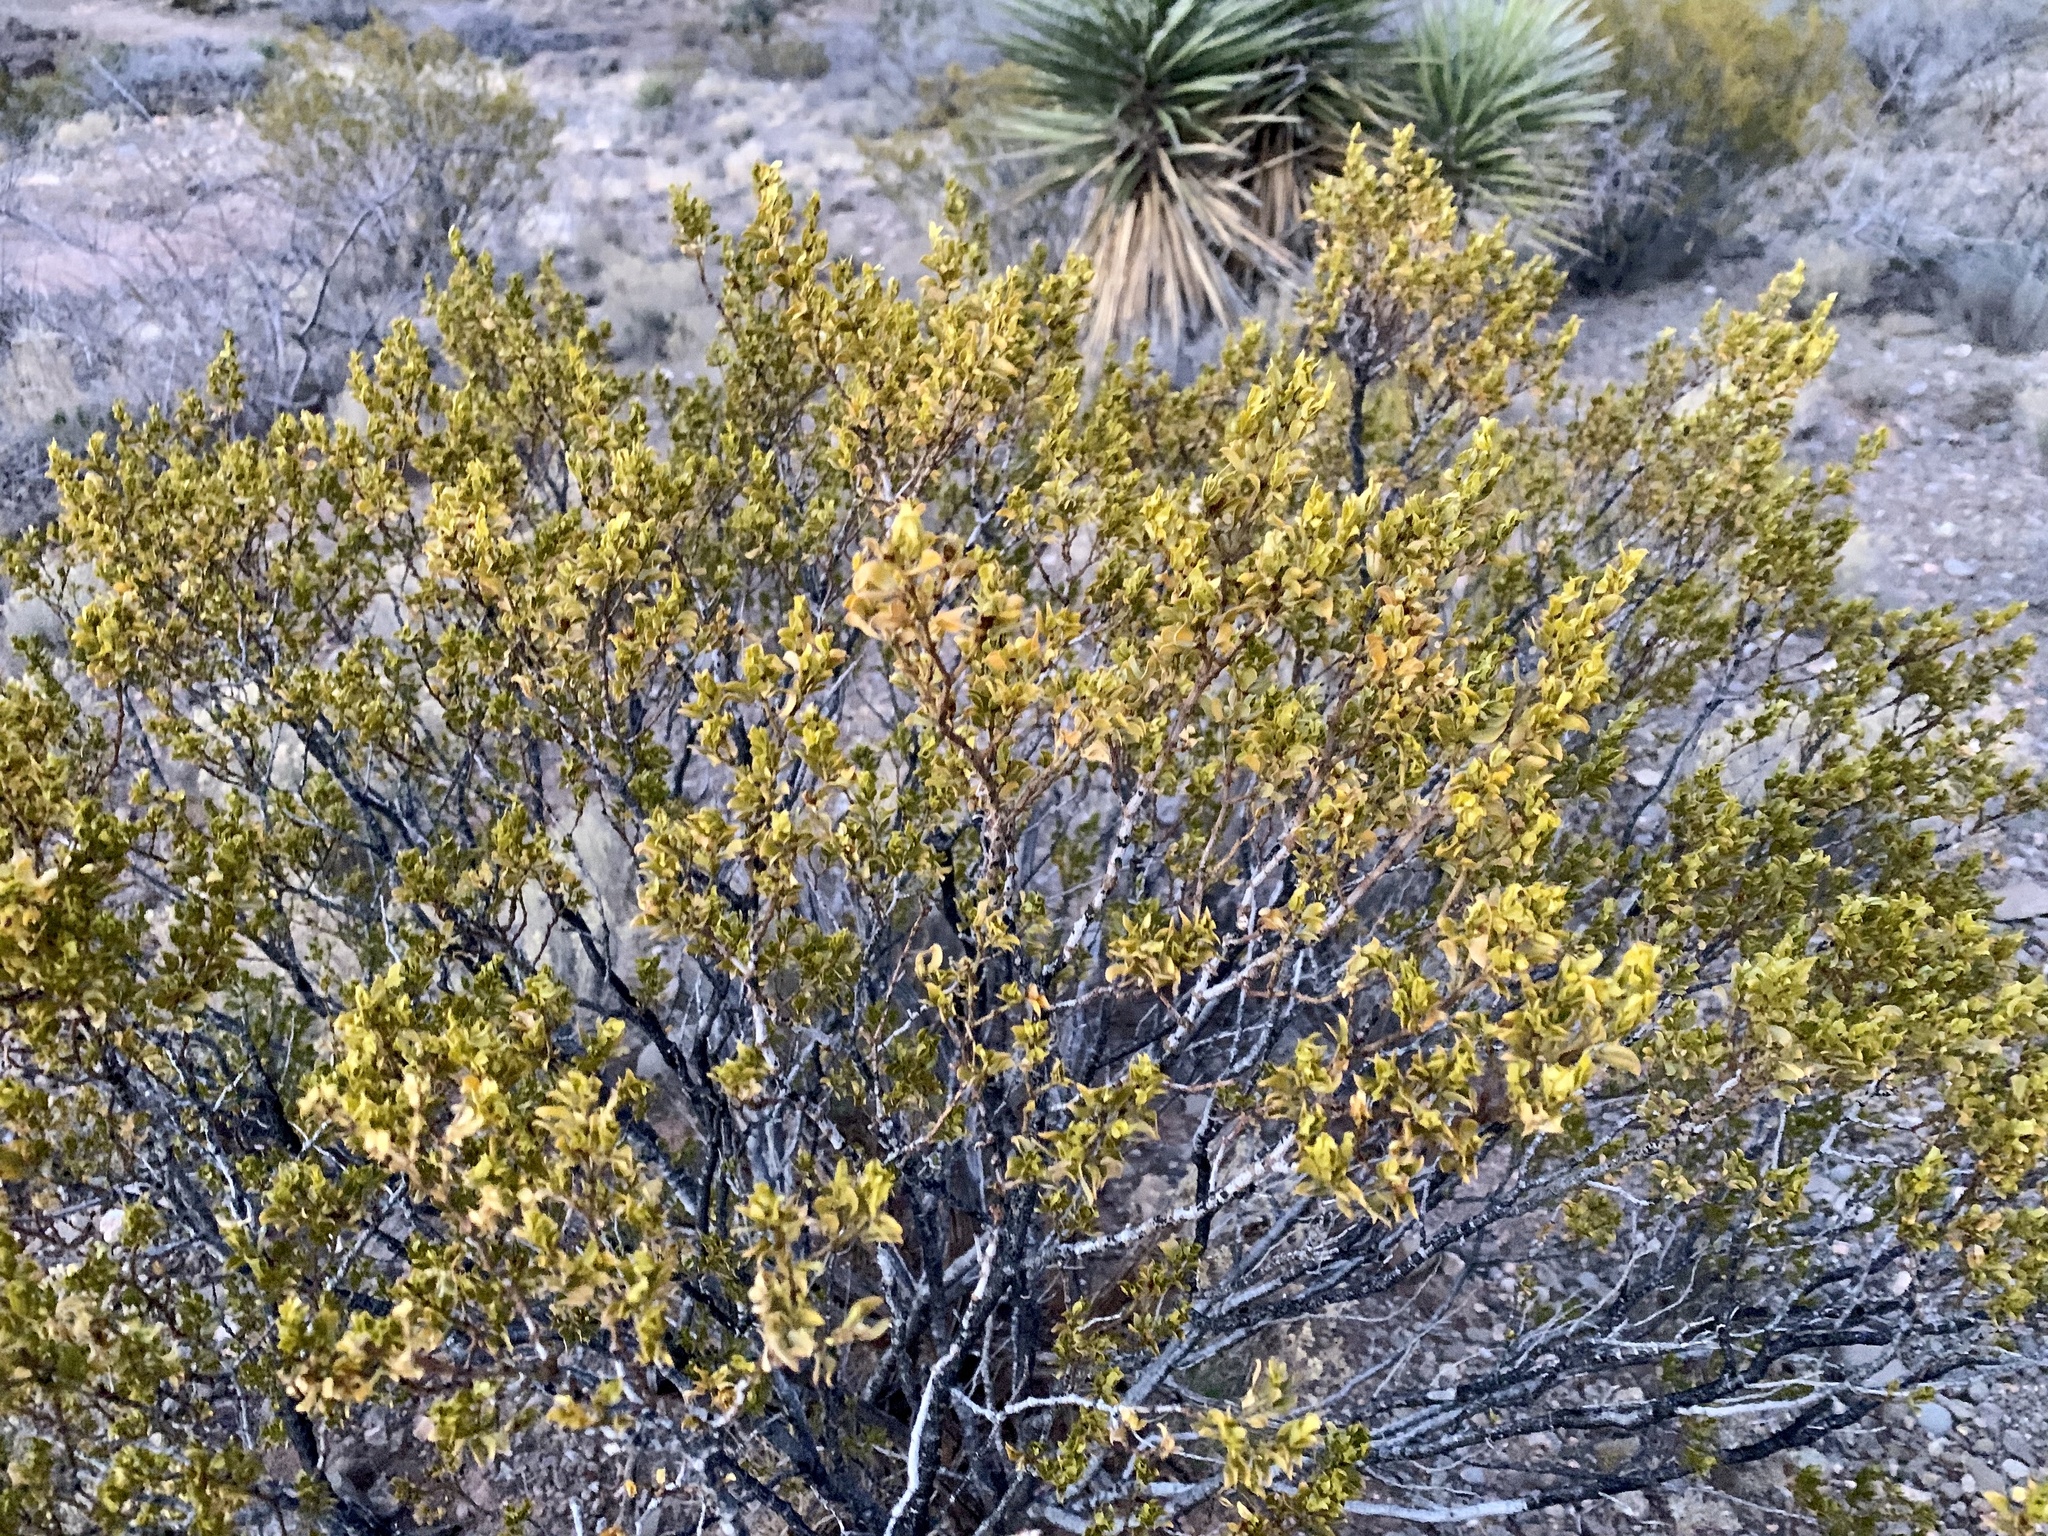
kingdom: Plantae
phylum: Tracheophyta
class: Magnoliopsida
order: Zygophyllales
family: Zygophyllaceae
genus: Larrea
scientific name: Larrea tridentata
